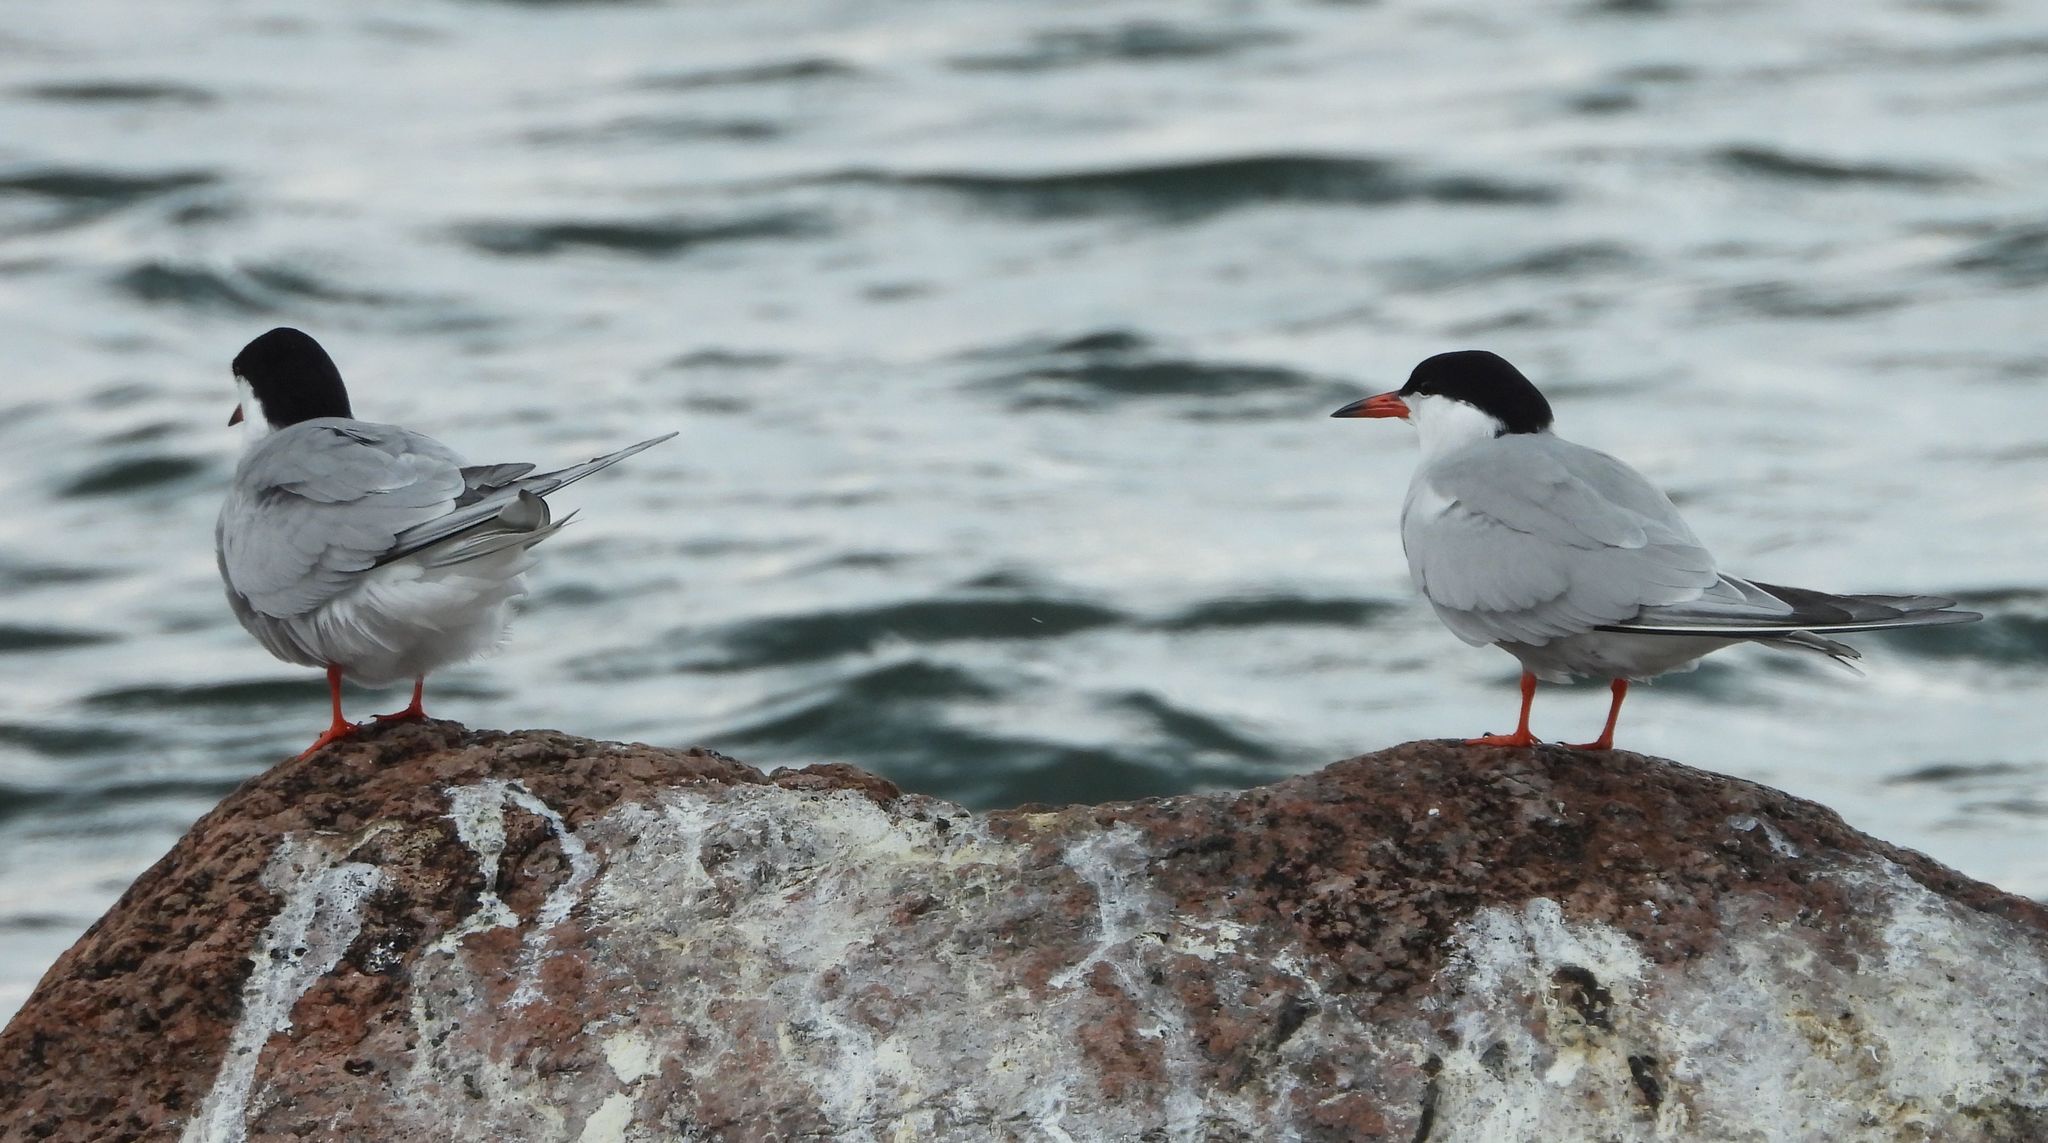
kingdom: Animalia
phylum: Chordata
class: Aves
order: Charadriiformes
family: Laridae
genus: Sterna
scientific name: Sterna hirundo
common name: Common tern
